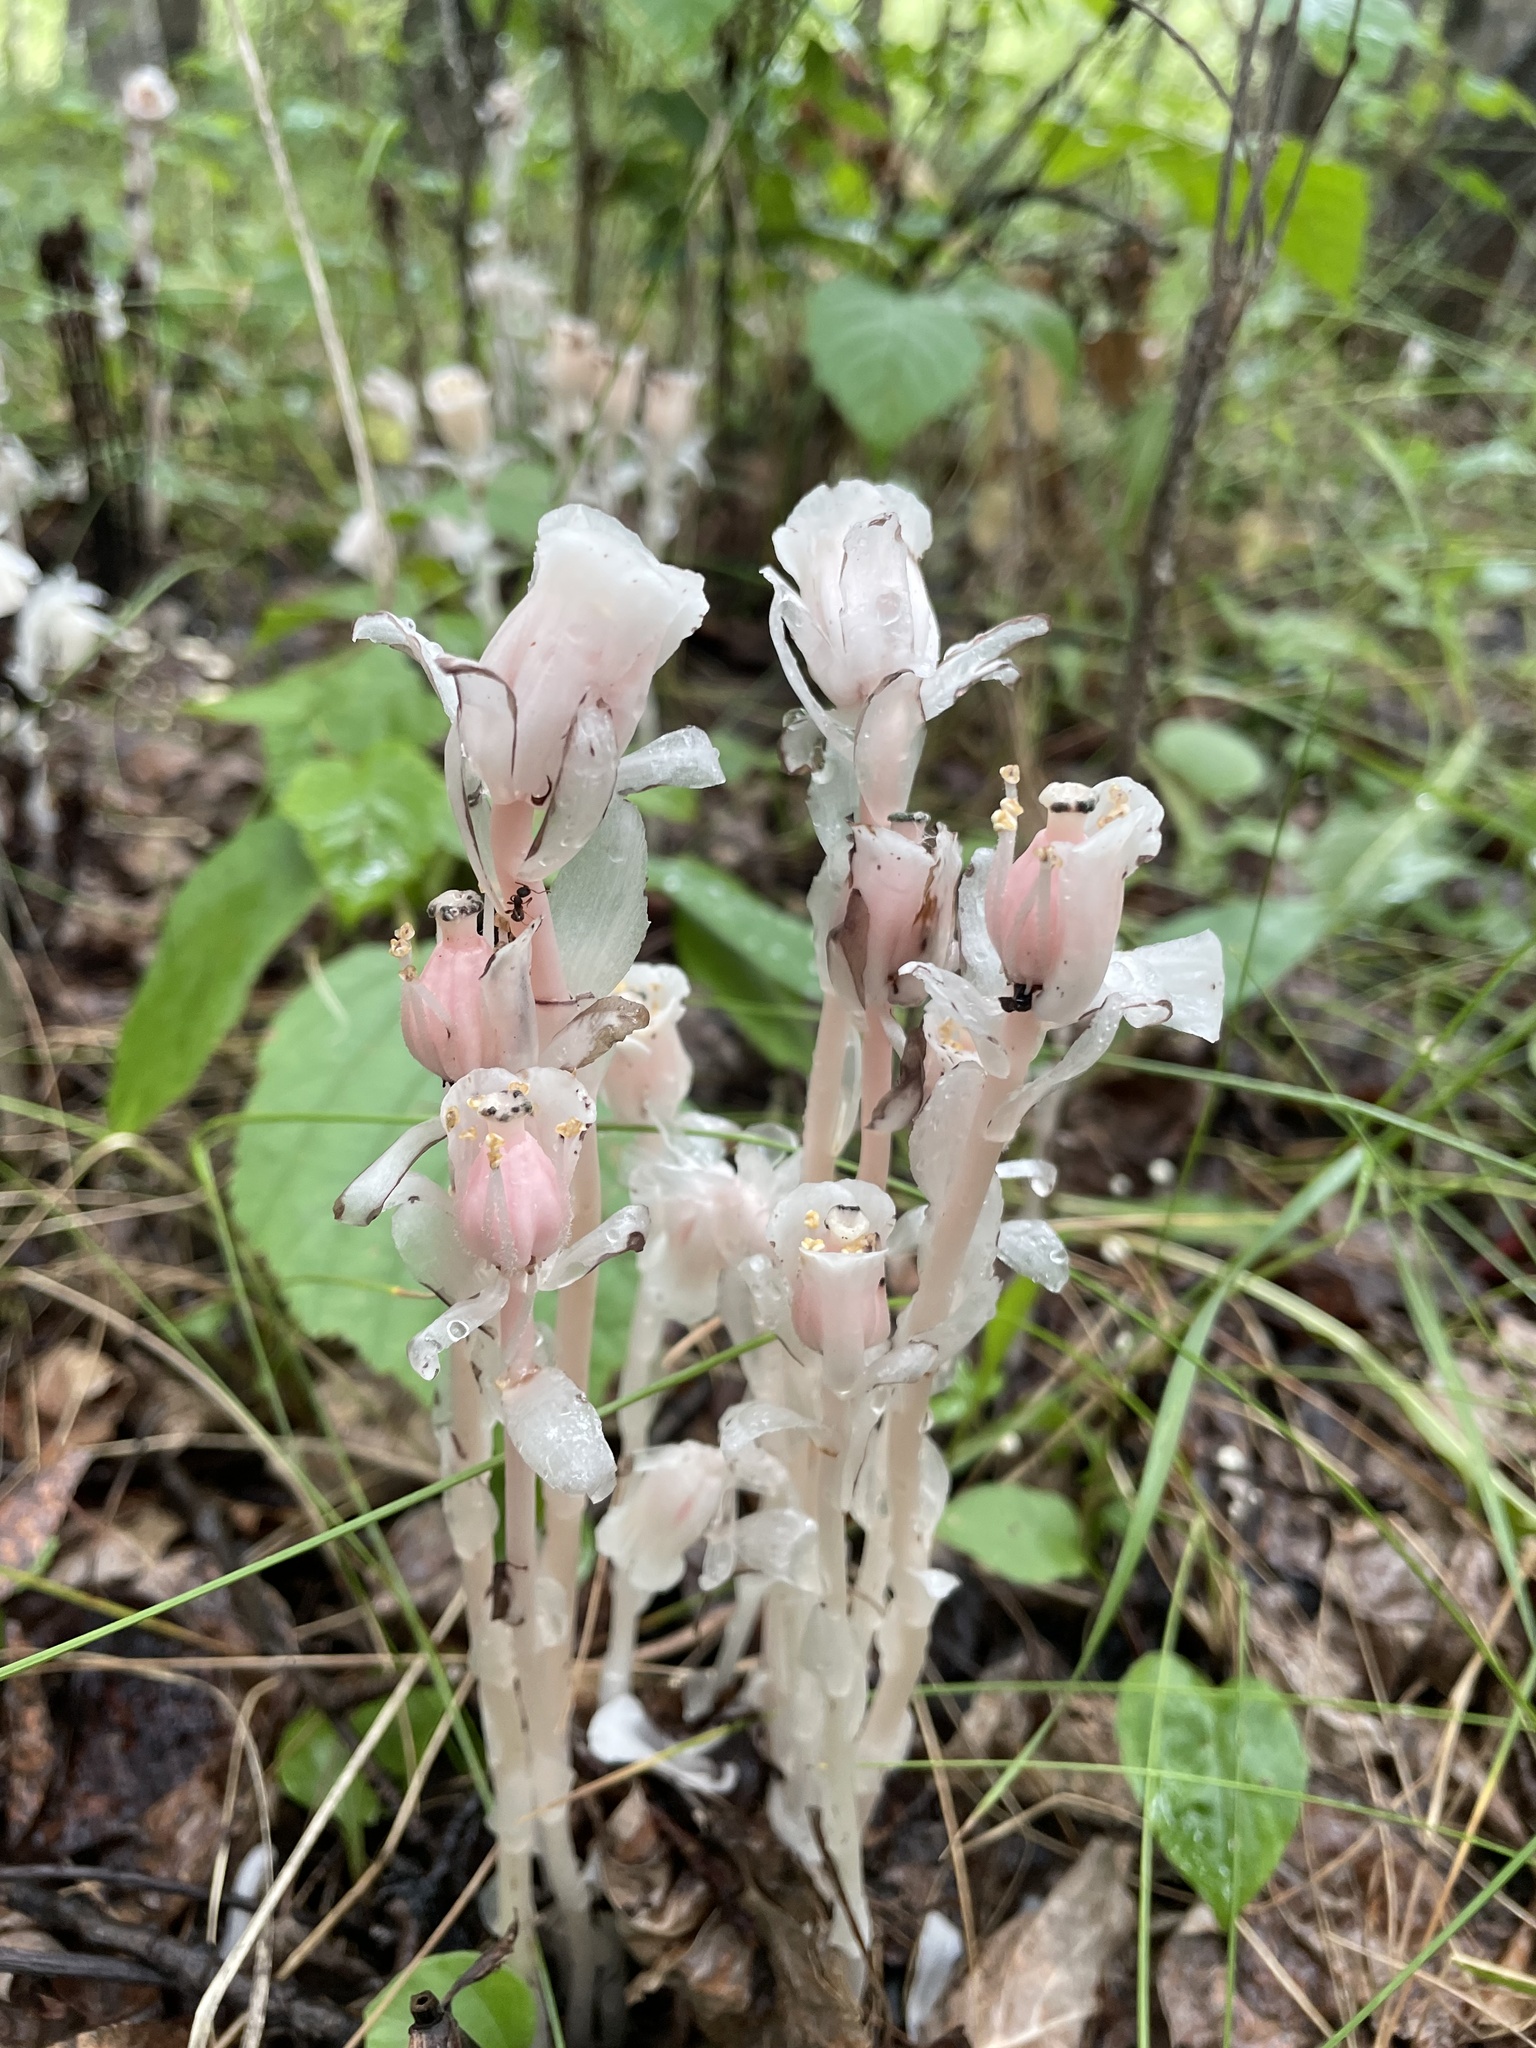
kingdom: Plantae
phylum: Tracheophyta
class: Magnoliopsida
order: Ericales
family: Ericaceae
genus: Monotropa
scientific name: Monotropa uniflora
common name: Convulsion root
